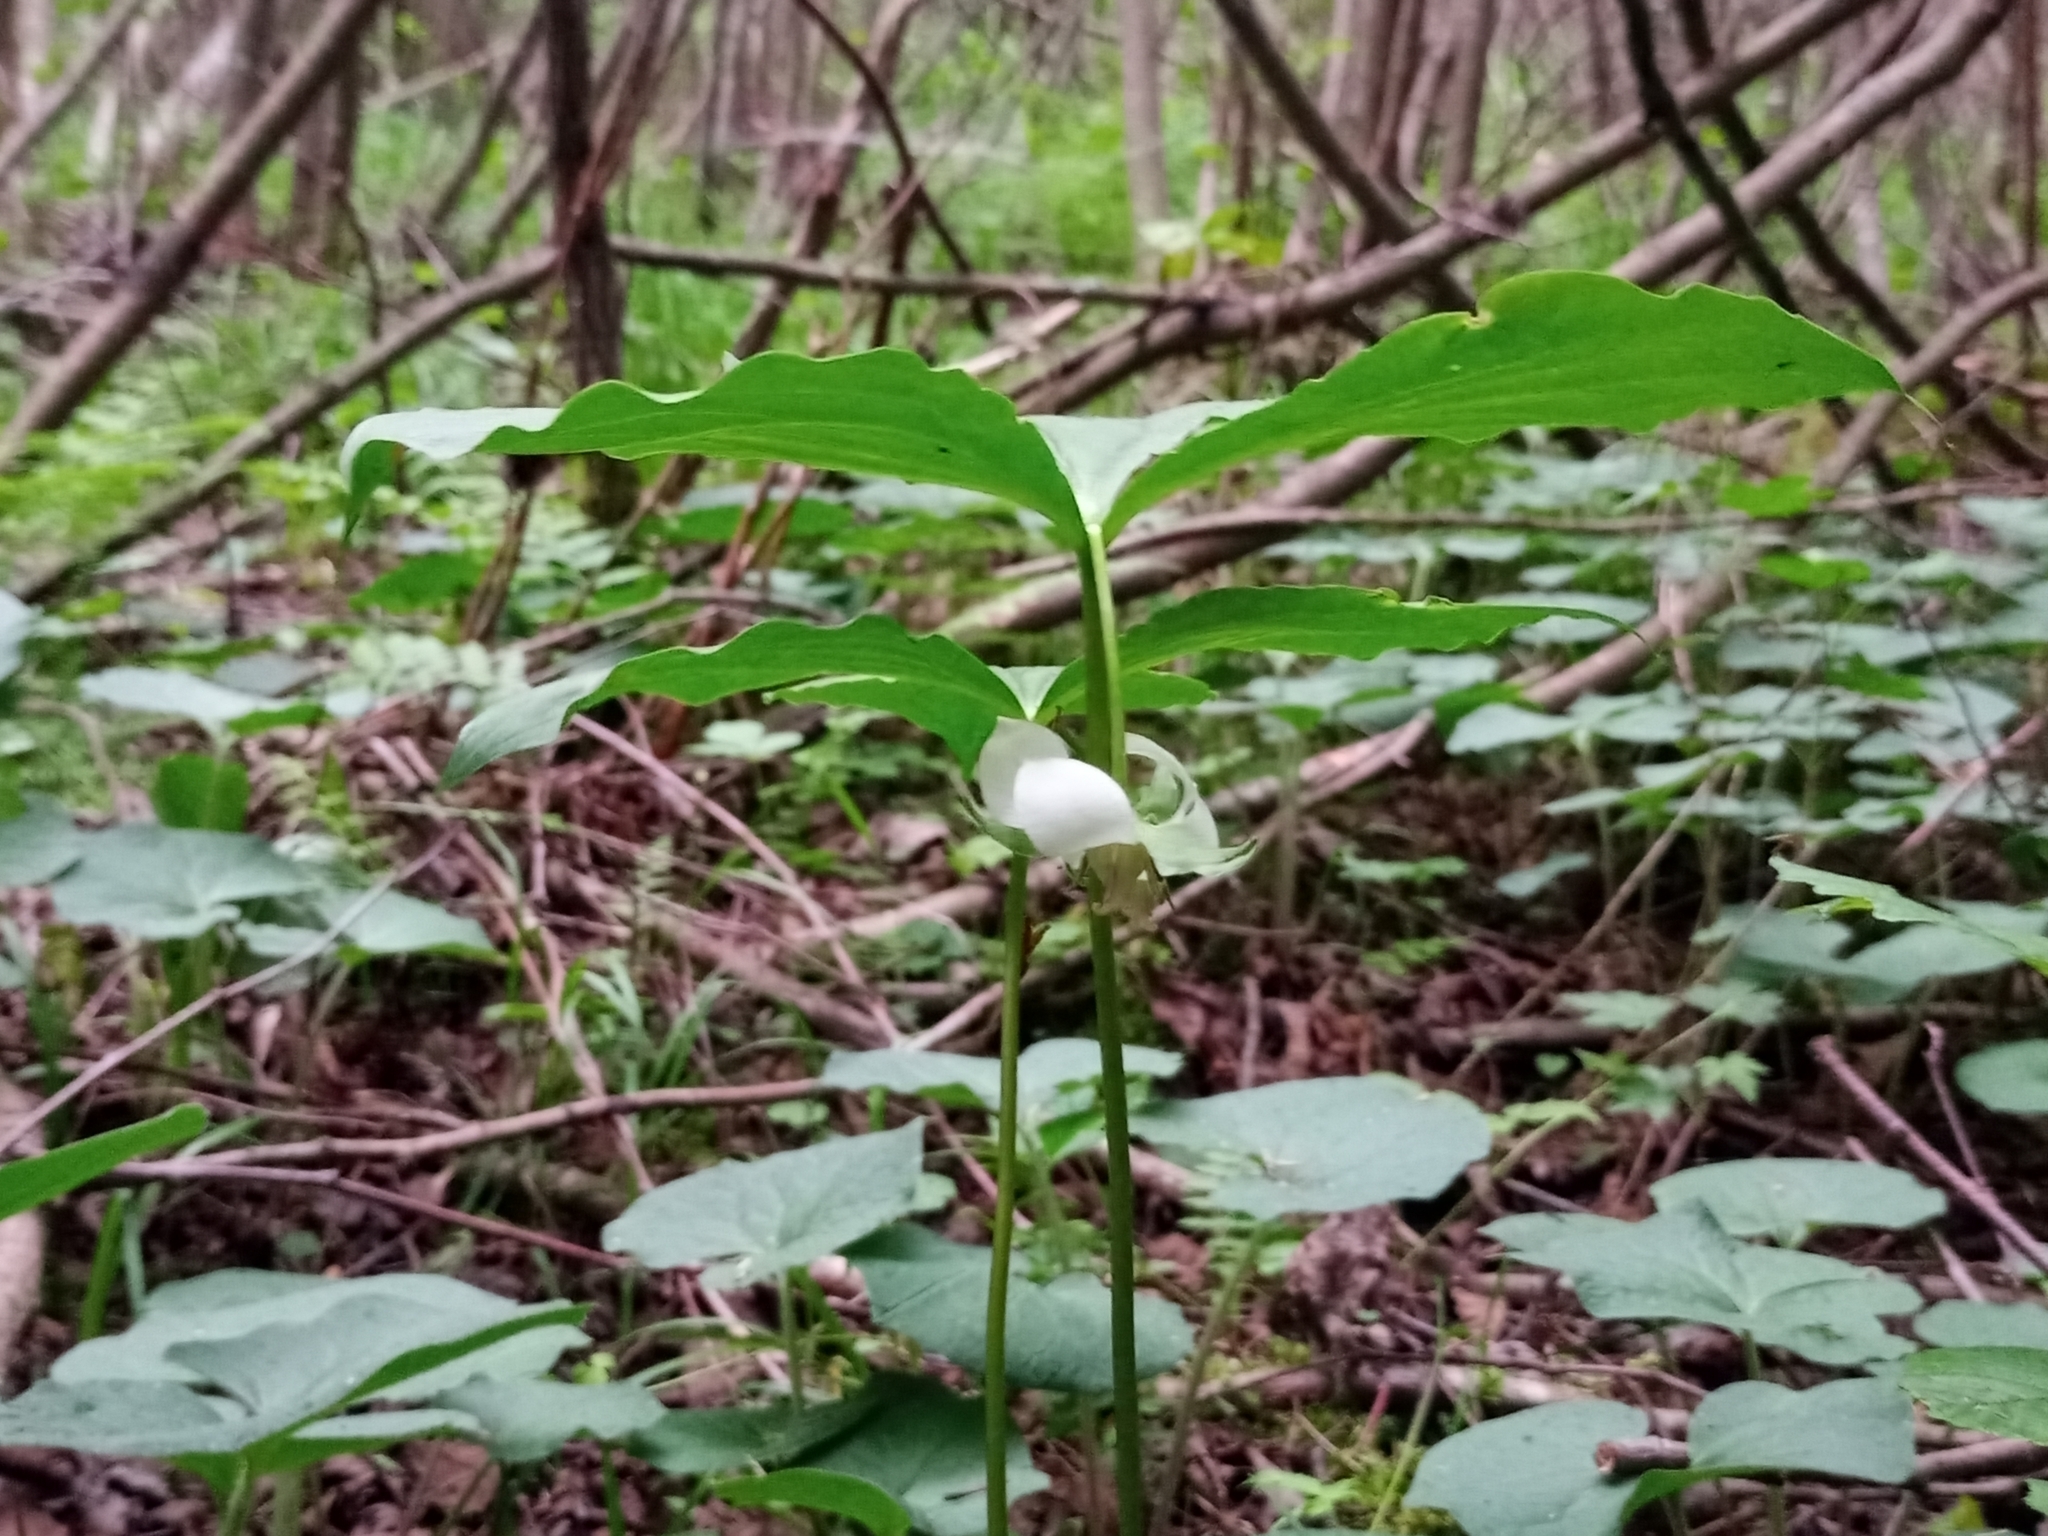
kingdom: Plantae
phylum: Tracheophyta
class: Liliopsida
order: Liliales
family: Melanthiaceae
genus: Trillium
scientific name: Trillium cernuum
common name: Nodding trillium
